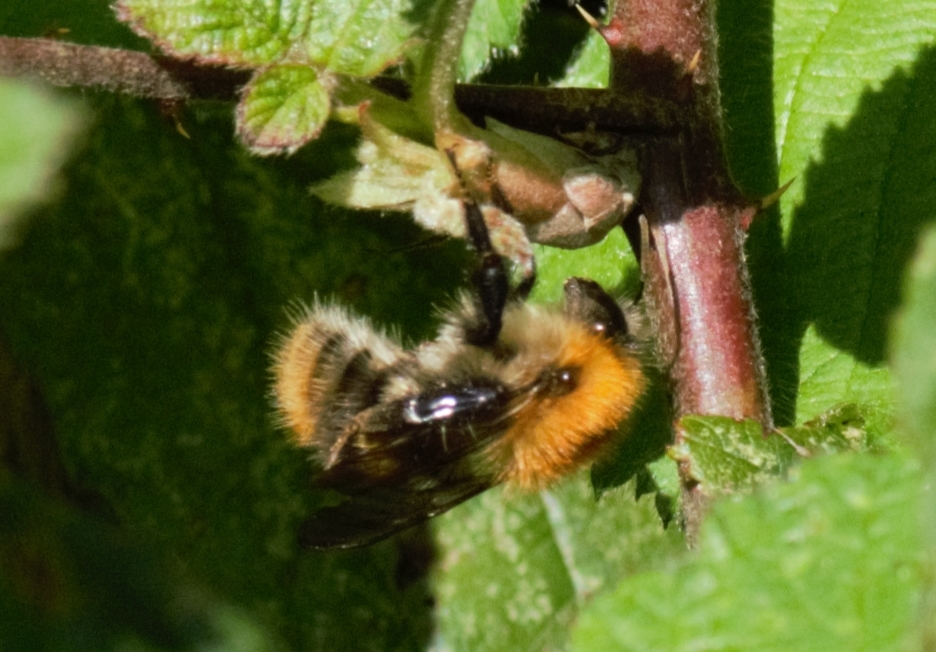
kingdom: Animalia
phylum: Arthropoda
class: Insecta
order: Hymenoptera
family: Apidae
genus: Bombus
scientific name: Bombus pascuorum
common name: Common carder bee
